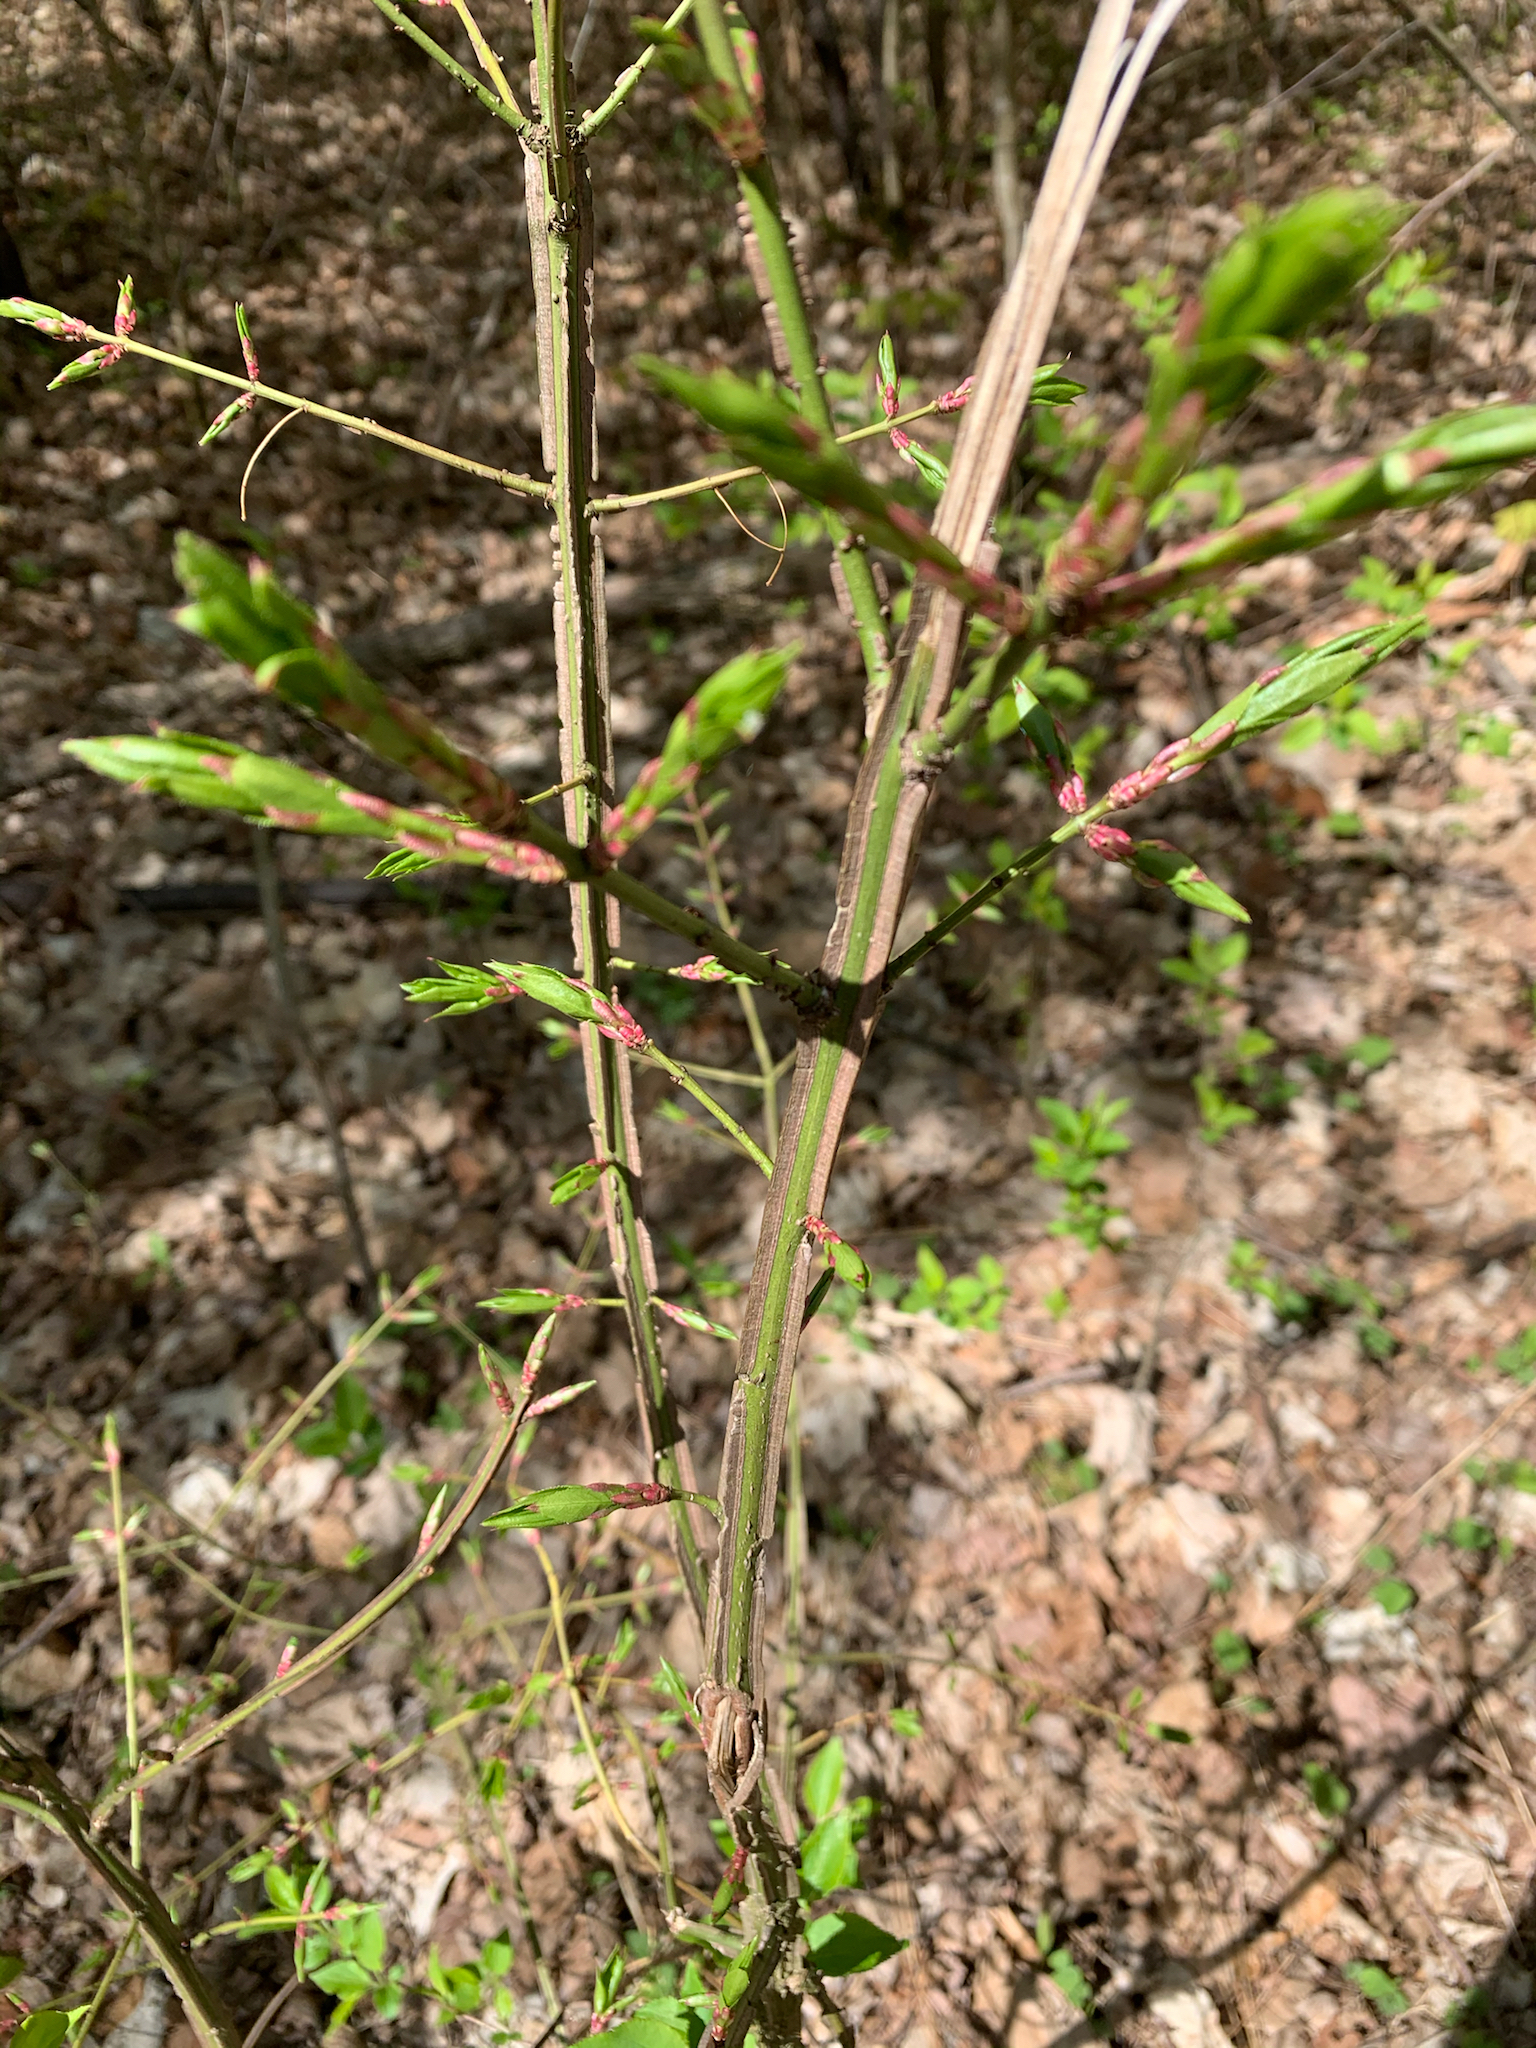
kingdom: Plantae
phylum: Tracheophyta
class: Magnoliopsida
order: Celastrales
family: Celastraceae
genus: Euonymus
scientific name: Euonymus alatus
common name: Winged euonymus
